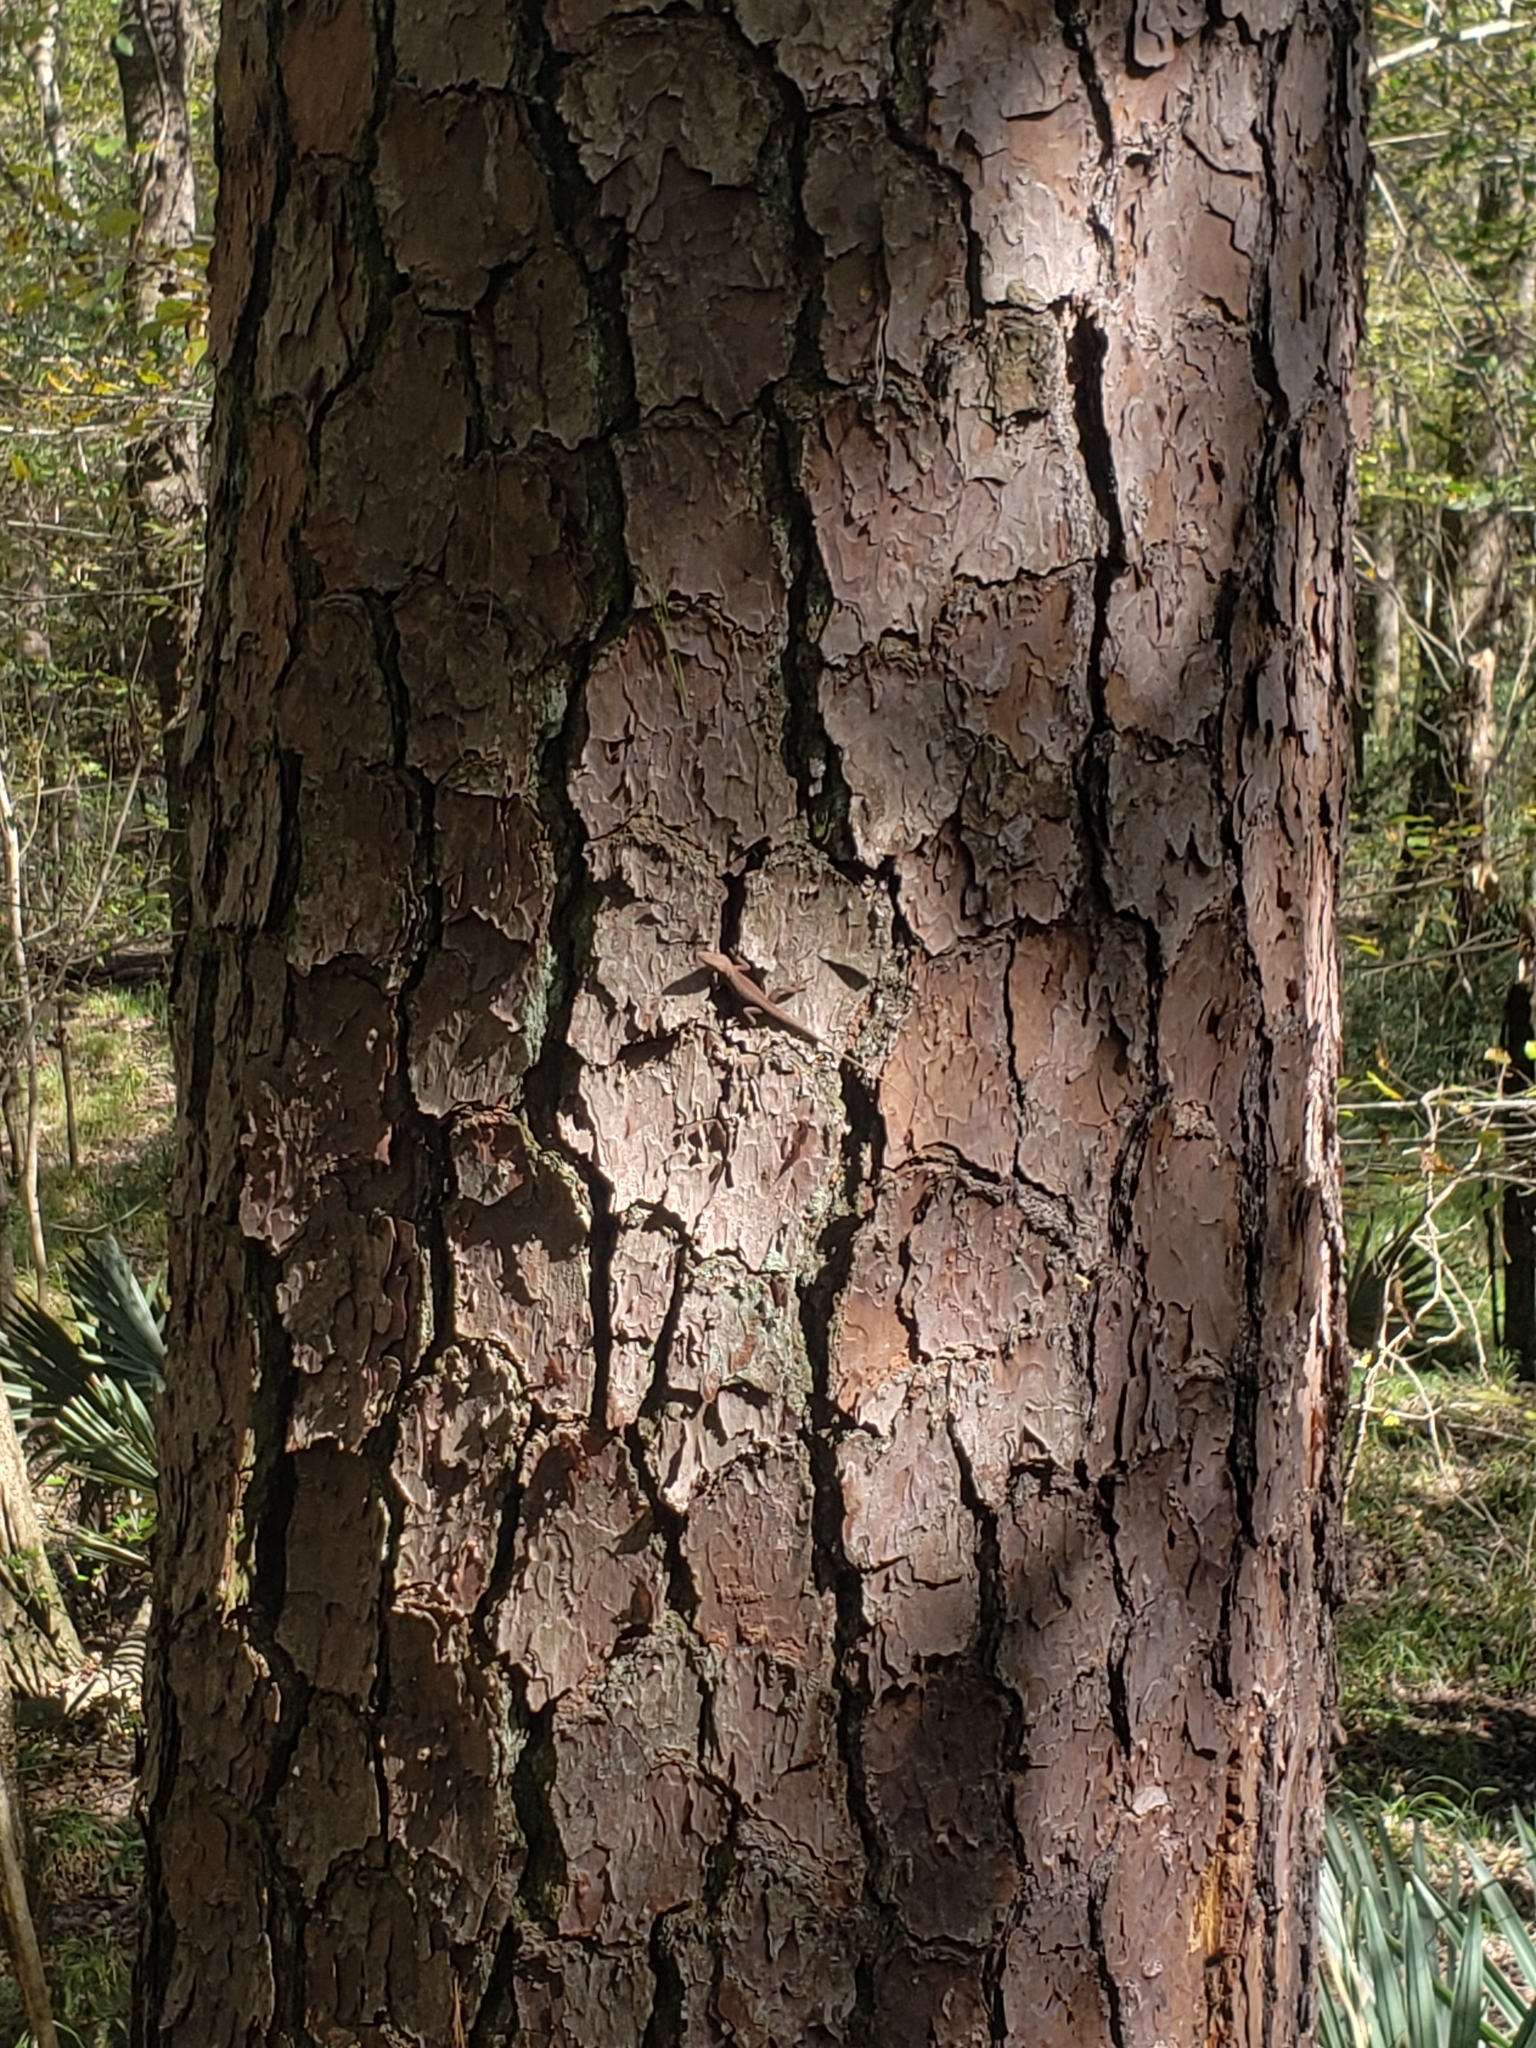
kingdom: Animalia
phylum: Chordata
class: Squamata
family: Dactyloidae
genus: Anolis
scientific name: Anolis carolinensis
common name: Green anole
